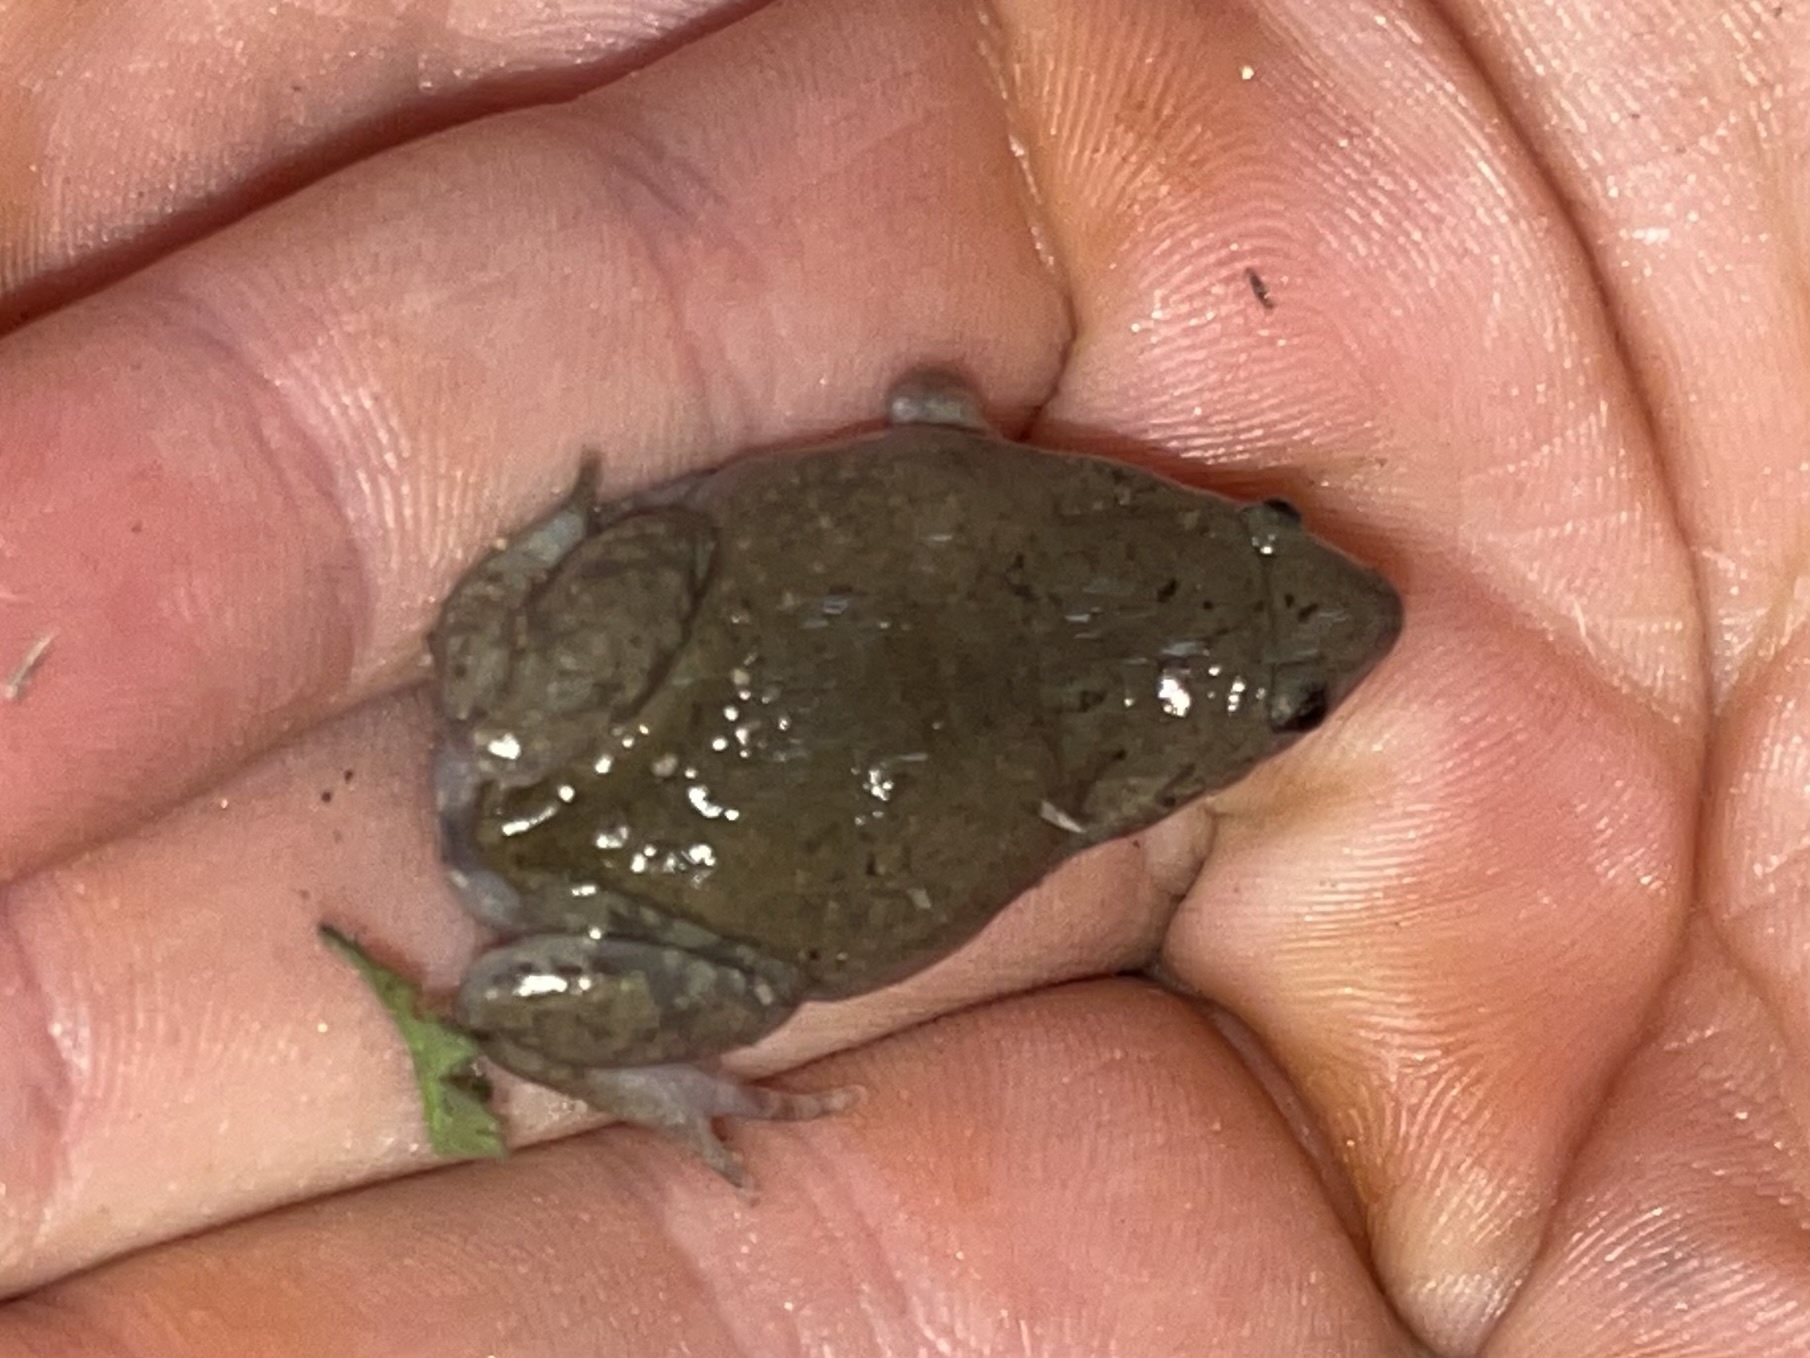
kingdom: Animalia
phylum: Chordata
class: Amphibia
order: Anura
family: Microhylidae
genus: Gastrophryne
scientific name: Gastrophryne olivacea
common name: Great plains narrow-mouthed toad
